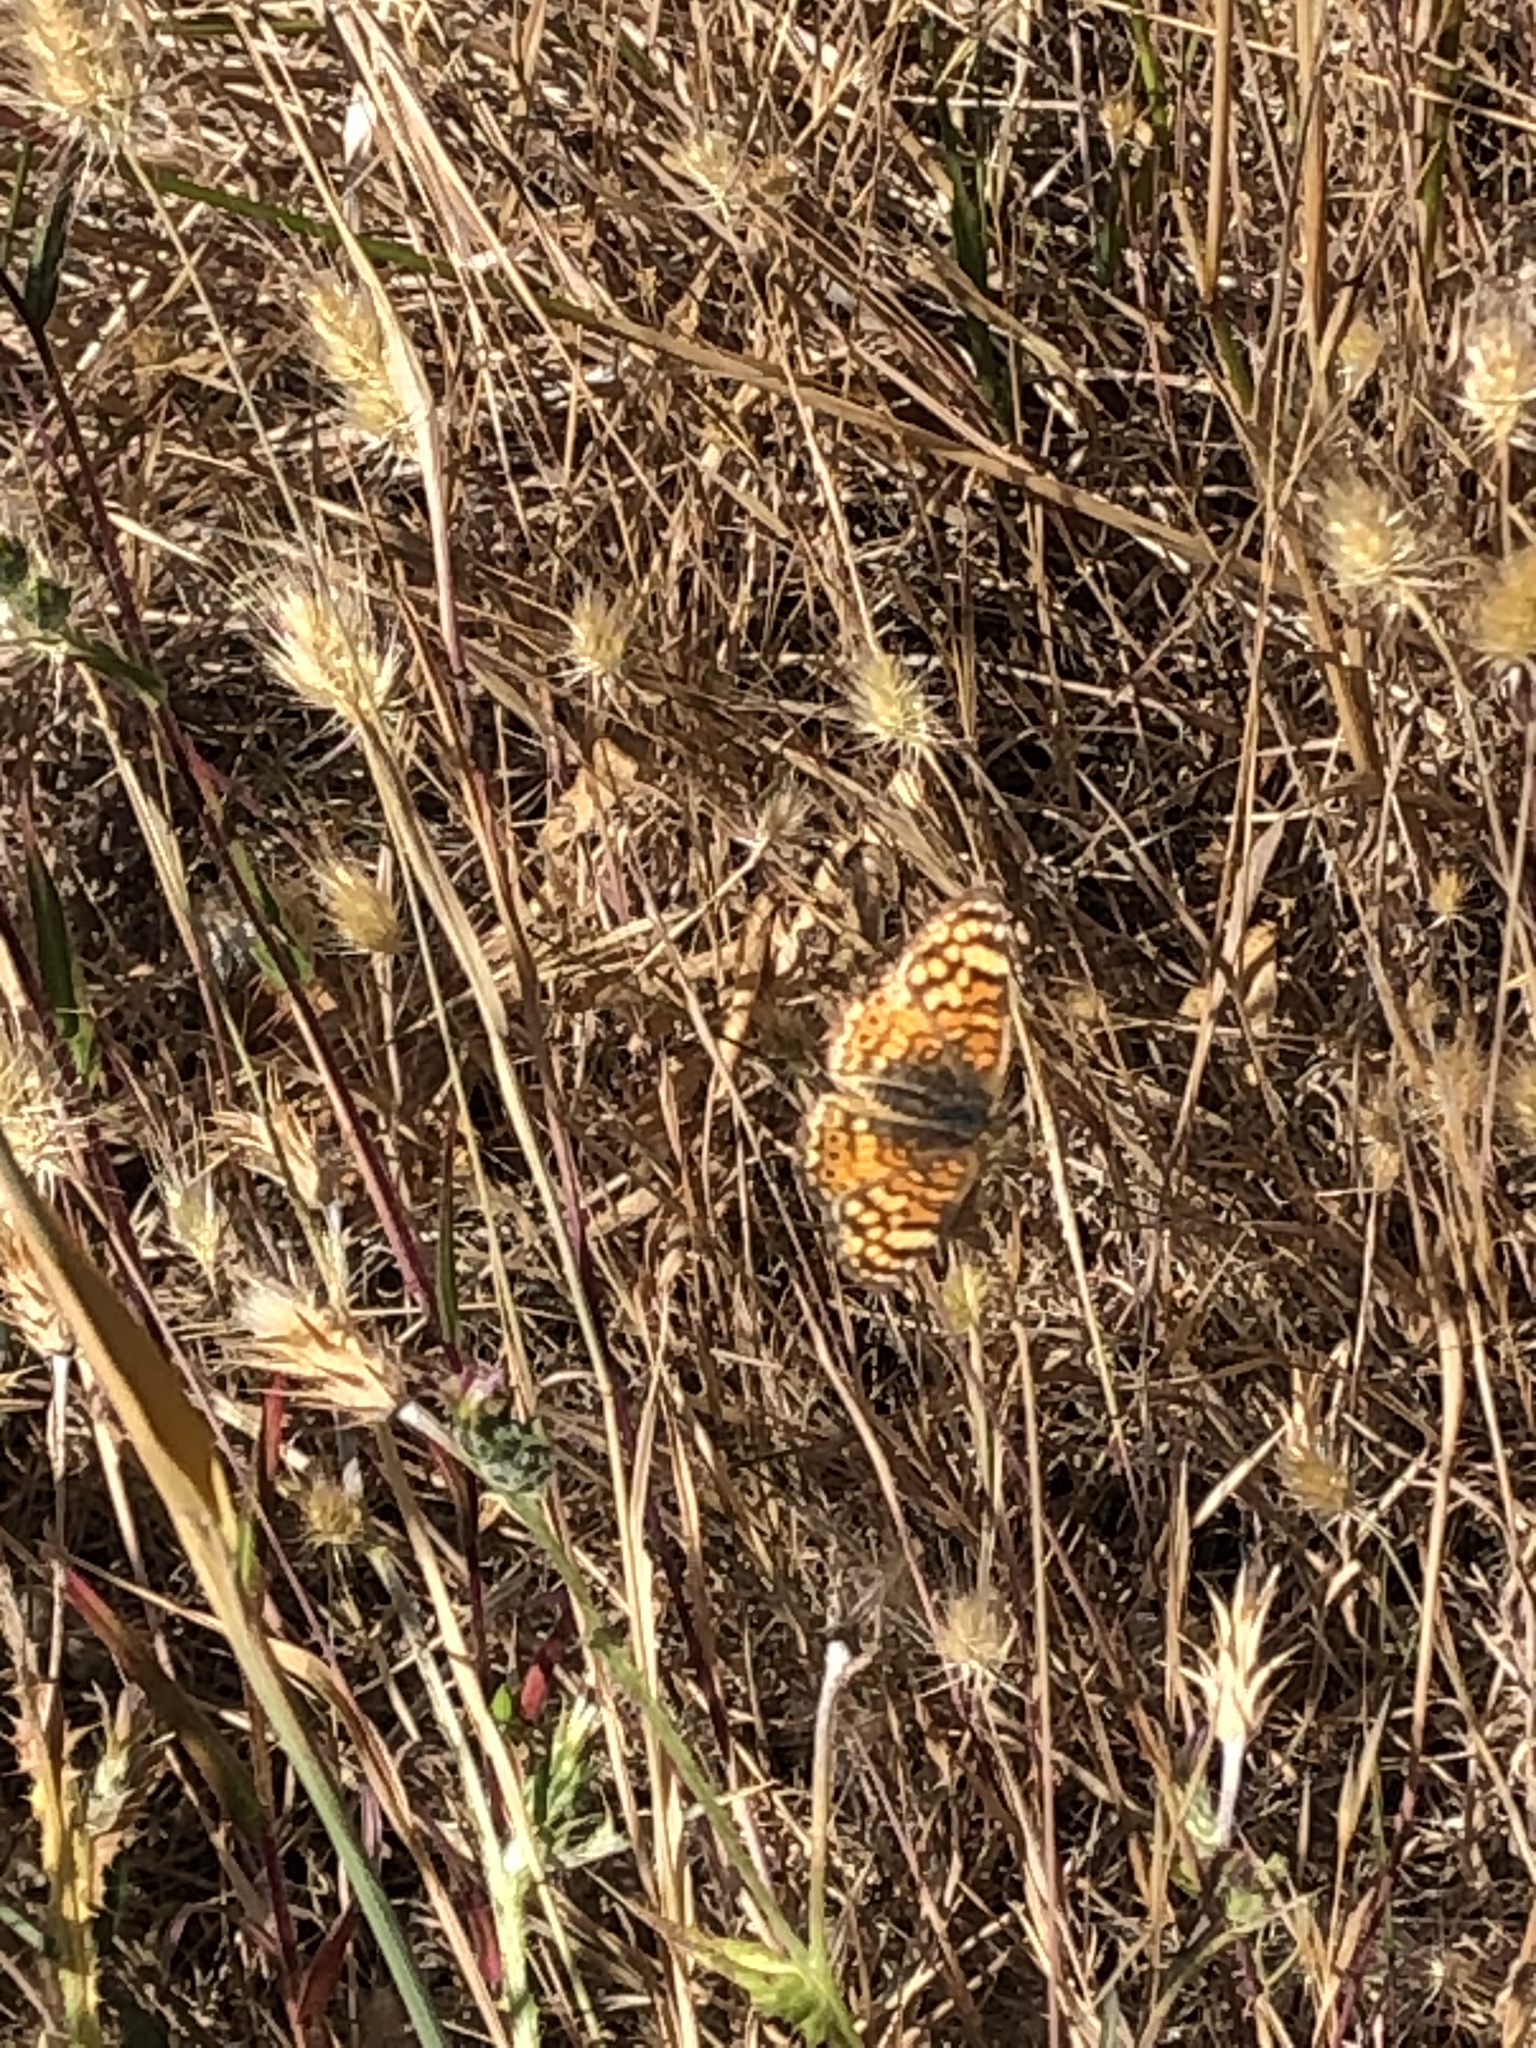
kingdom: Animalia
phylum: Arthropoda
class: Insecta
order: Lepidoptera
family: Nymphalidae
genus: Eresia
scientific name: Eresia aveyrona
